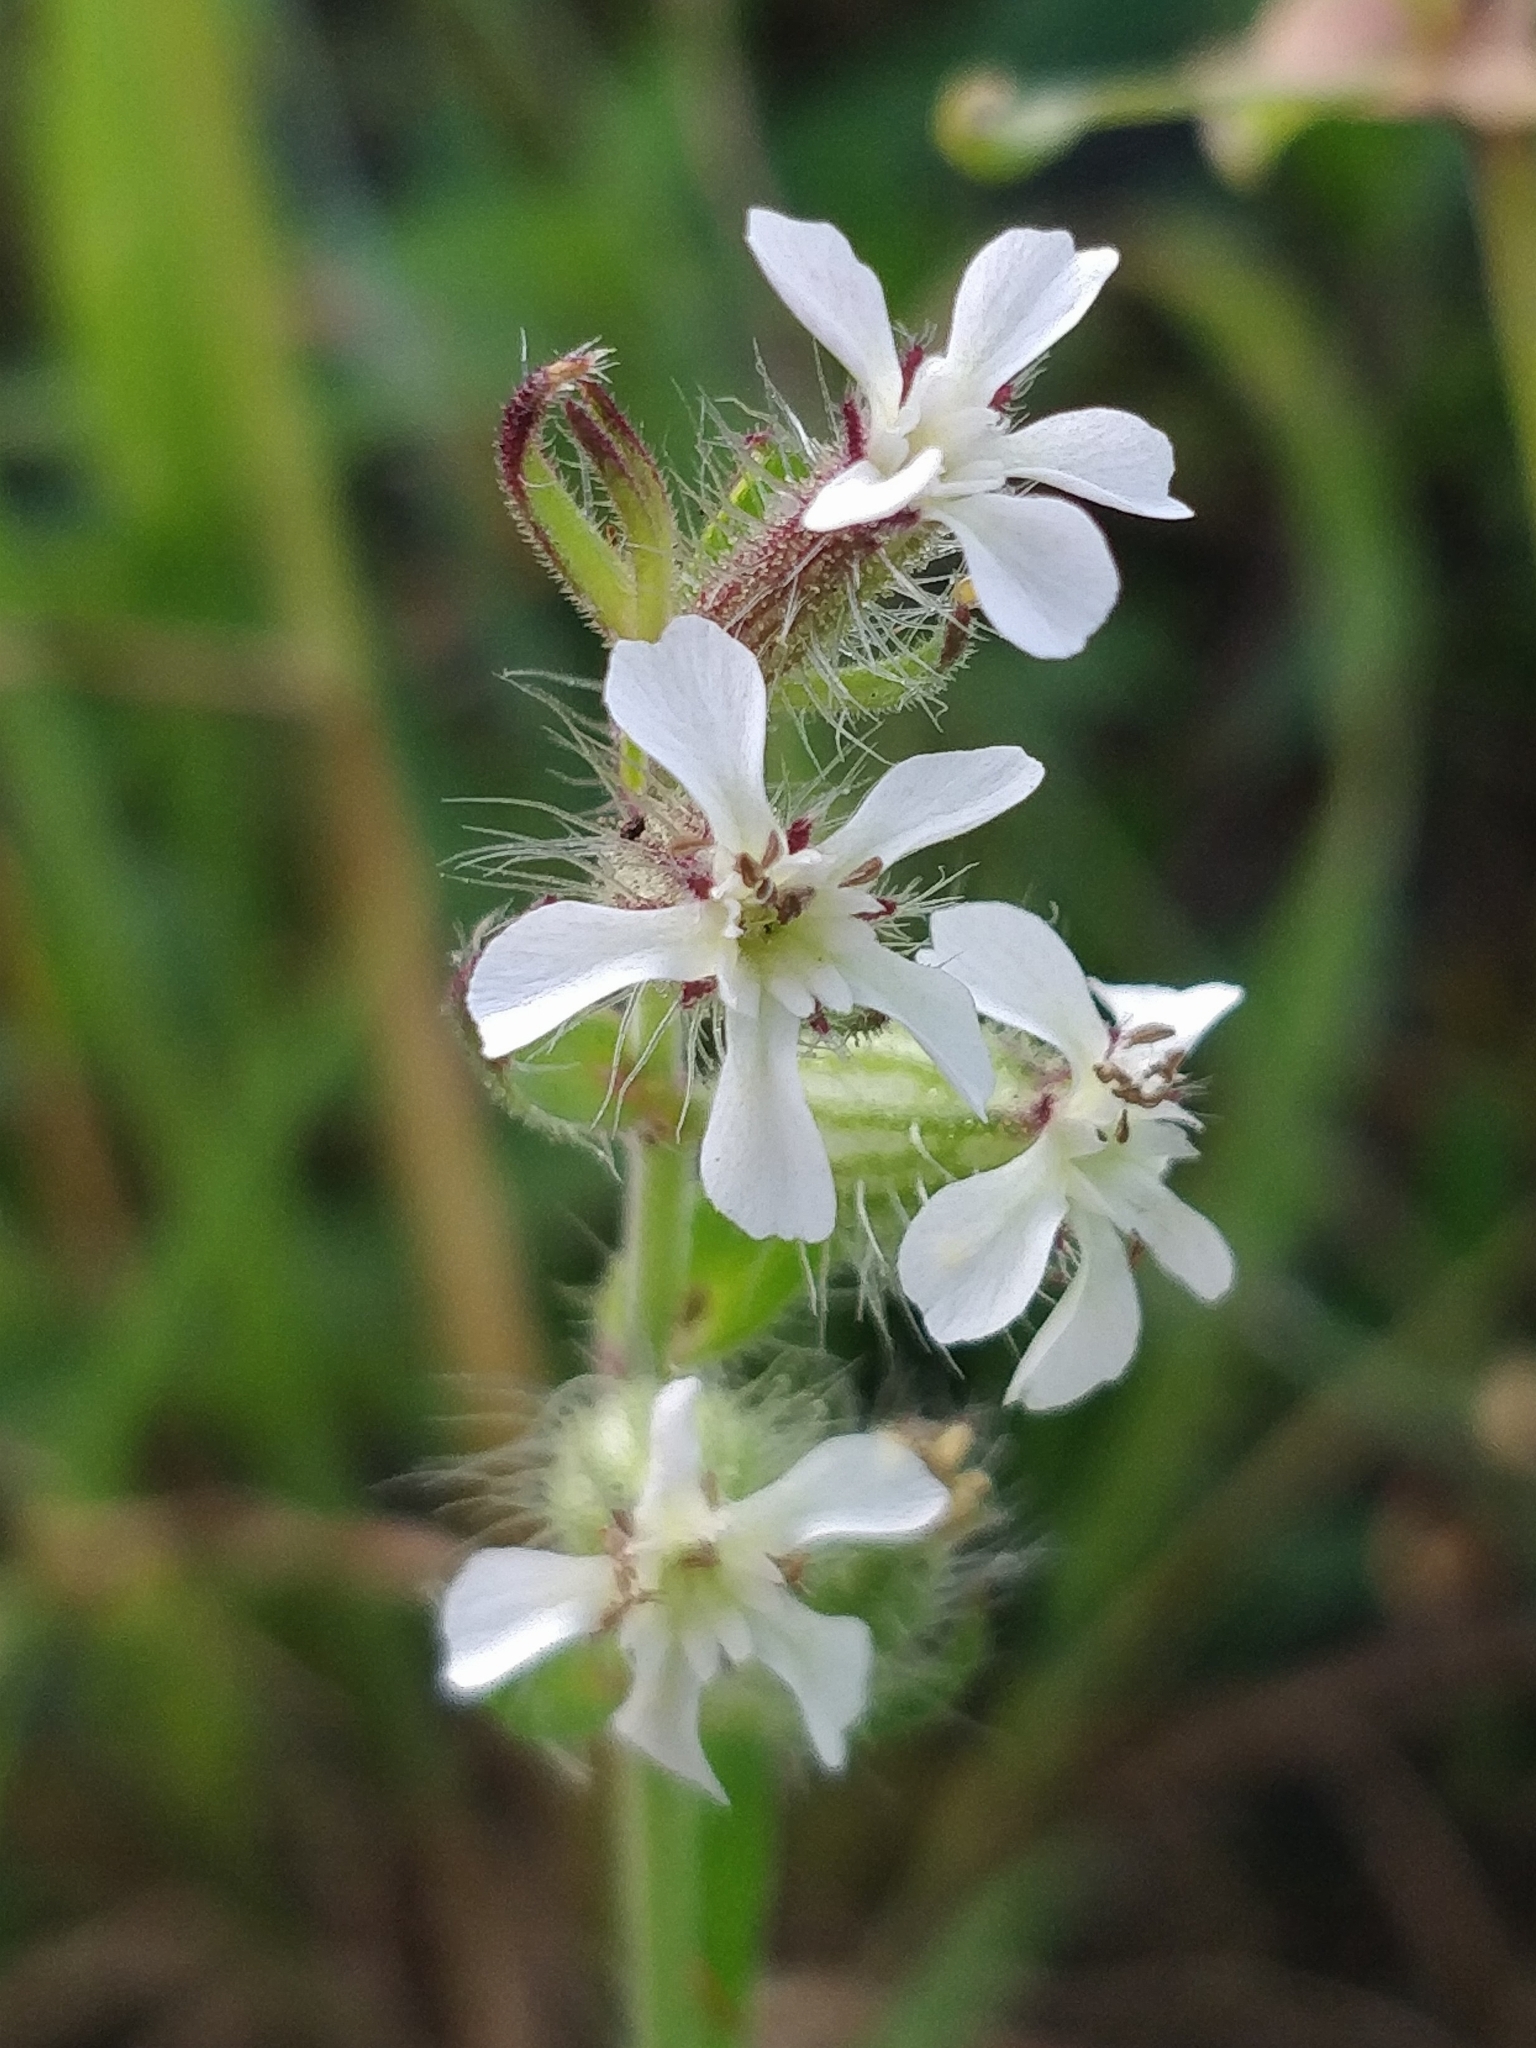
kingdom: Plantae
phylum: Tracheophyta
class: Magnoliopsida
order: Caryophyllales
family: Caryophyllaceae
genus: Silene
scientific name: Silene gallica
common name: Small-flowered catchfly
